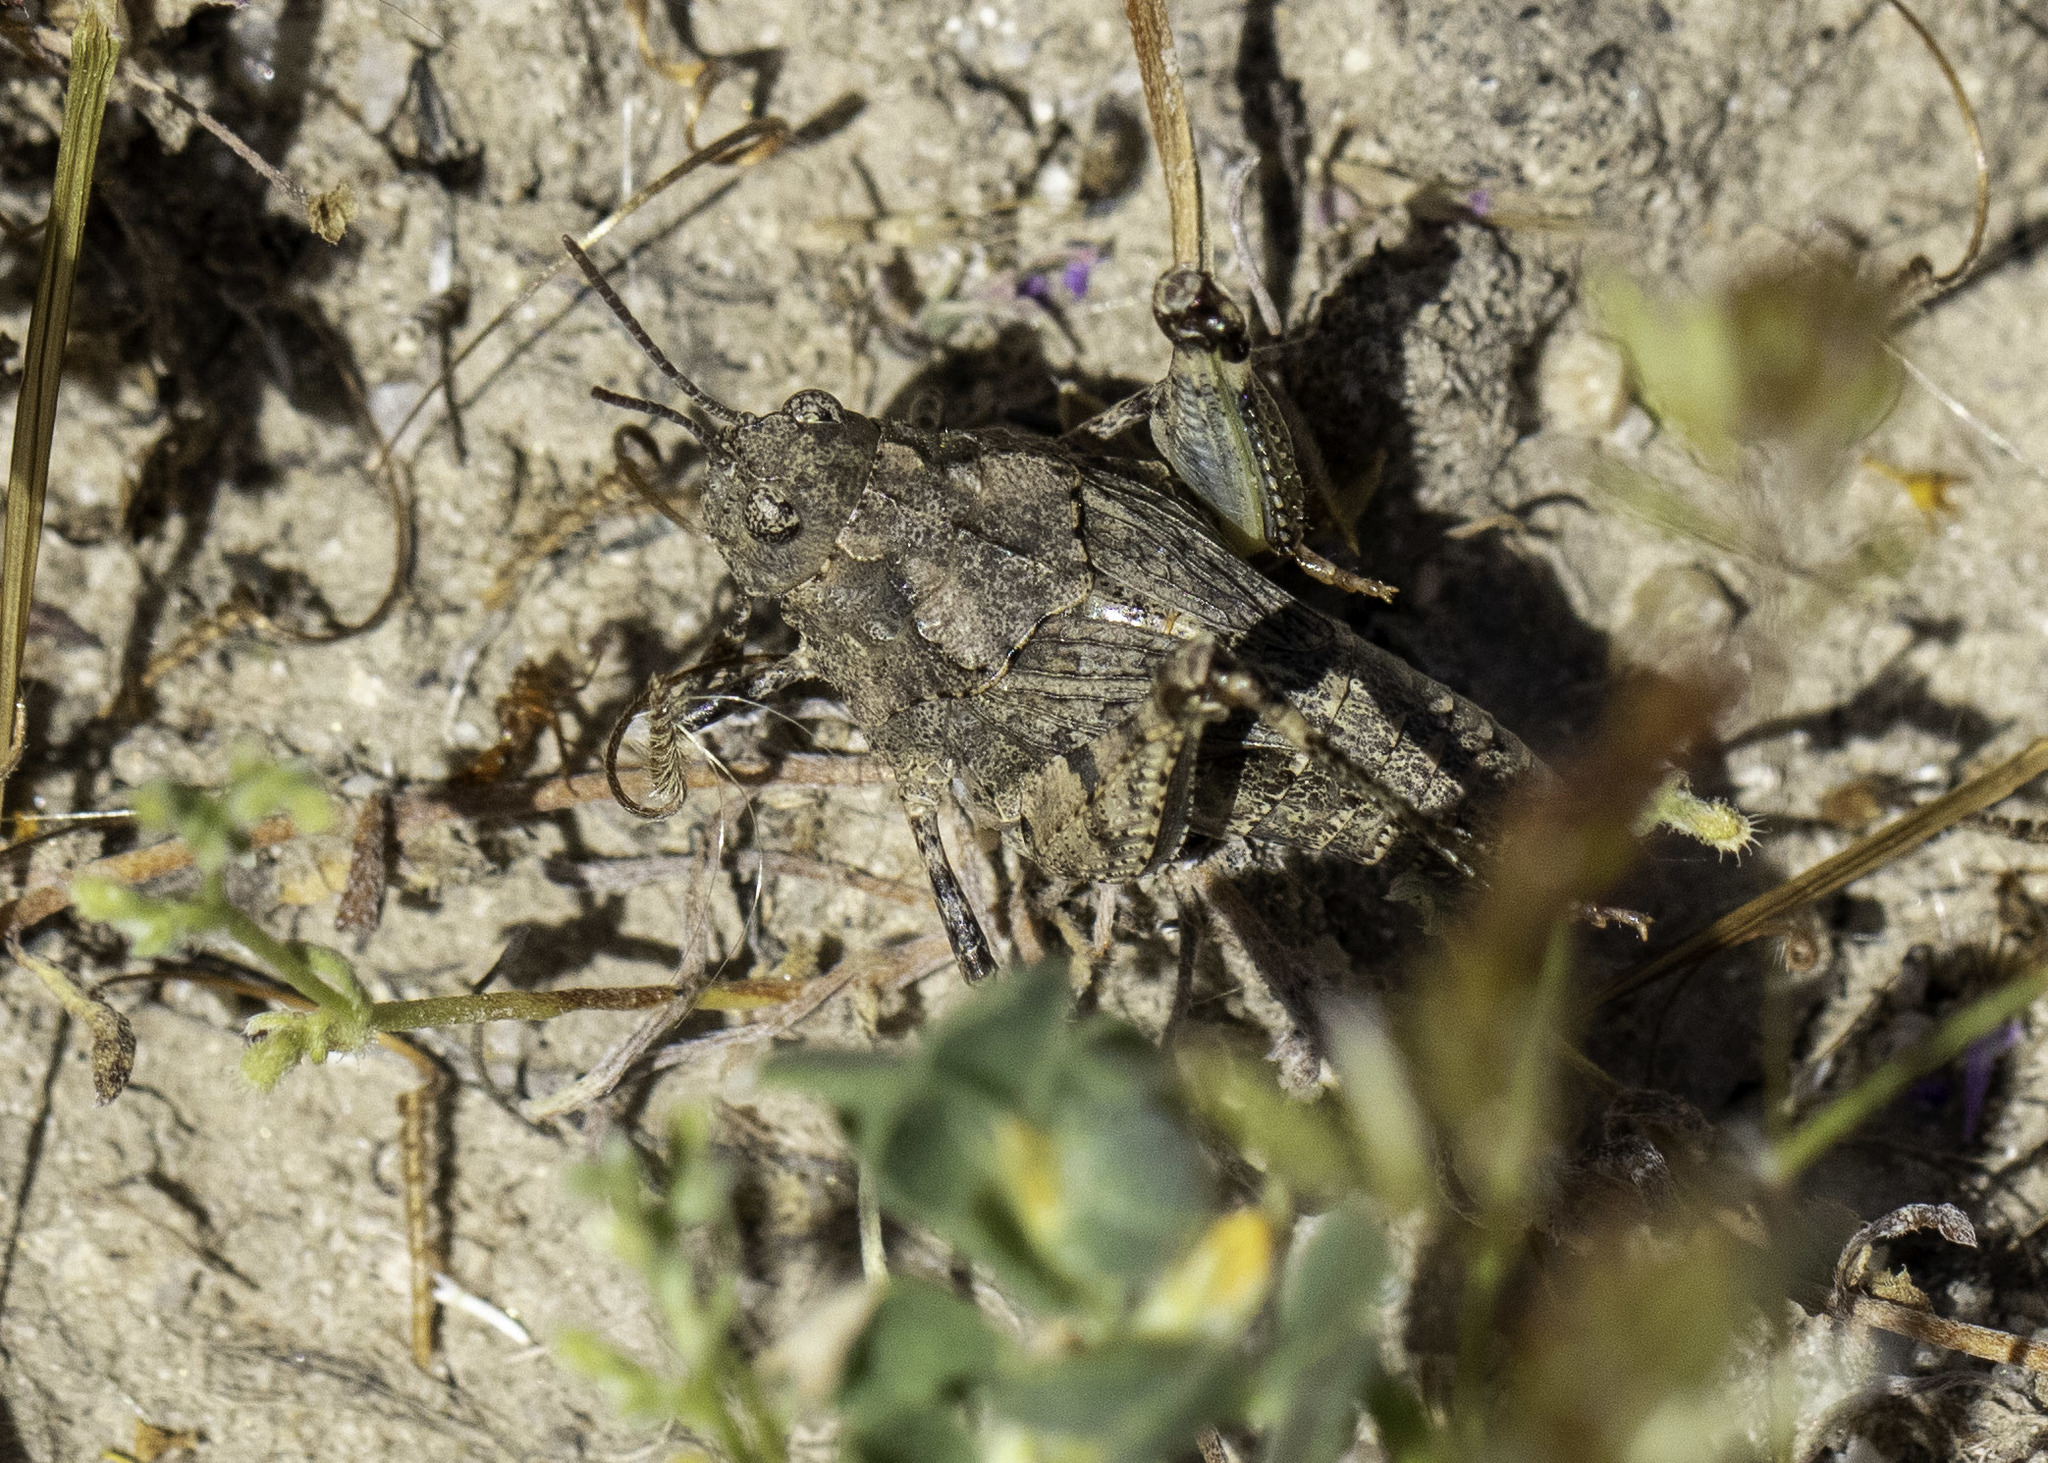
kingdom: Animalia
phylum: Arthropoda
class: Insecta
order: Orthoptera
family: Acrididae
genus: Esselenia
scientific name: Esselenia vanduzeei
